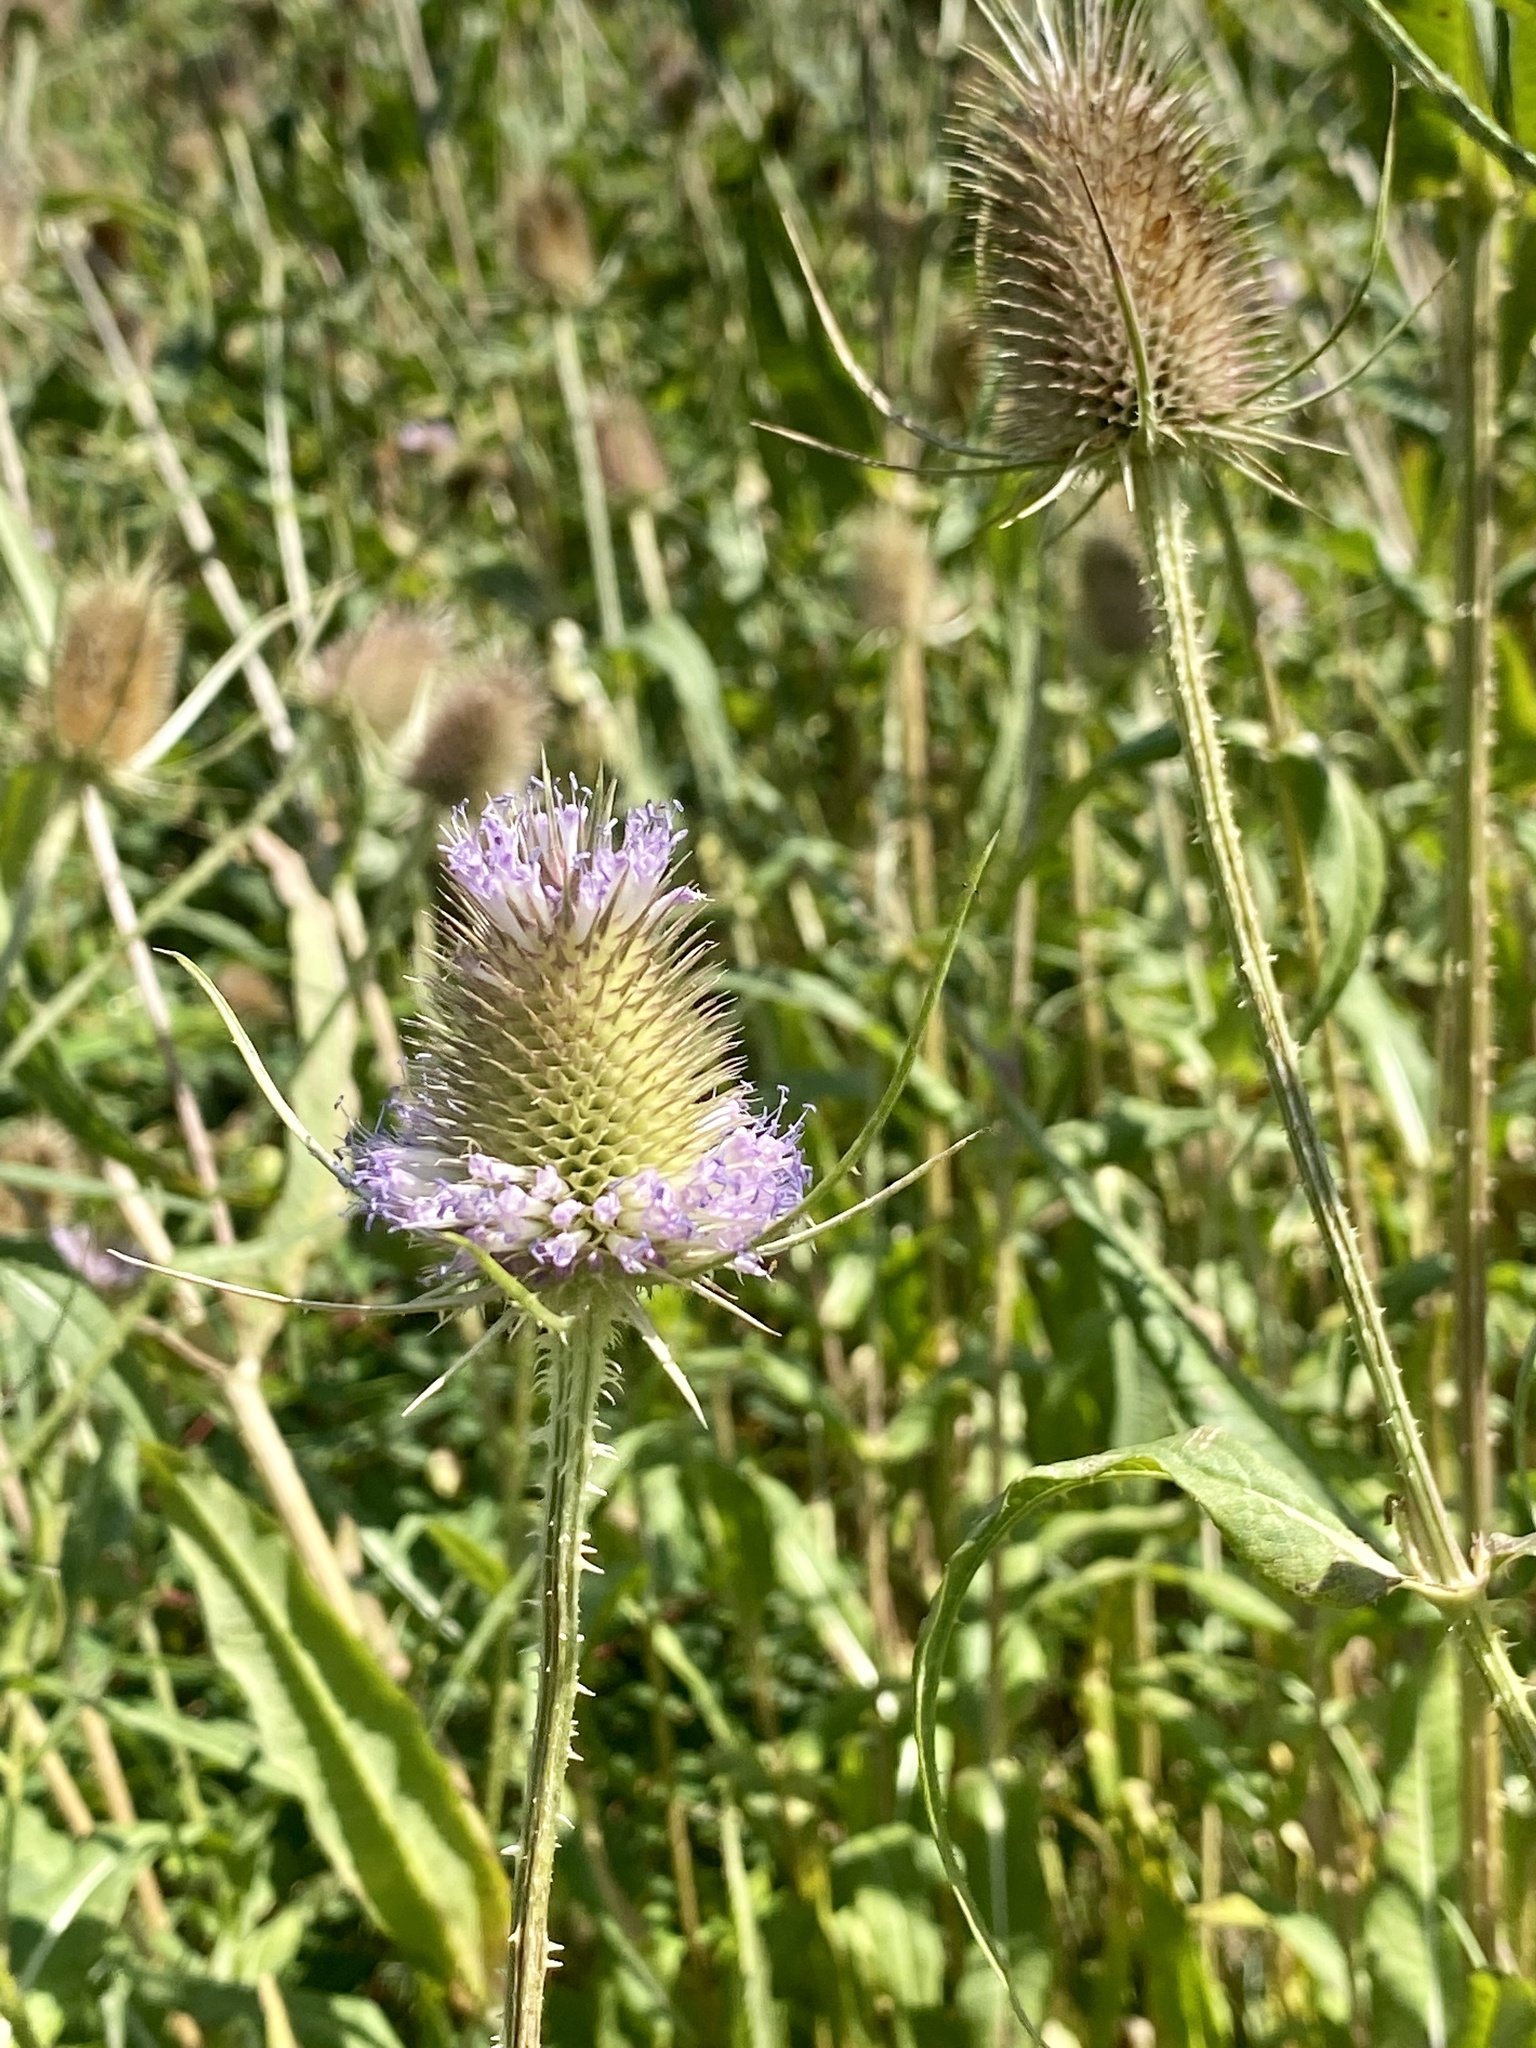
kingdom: Plantae
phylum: Tracheophyta
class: Magnoliopsida
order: Dipsacales
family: Caprifoliaceae
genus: Dipsacus
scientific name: Dipsacus fullonum
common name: Teasel
